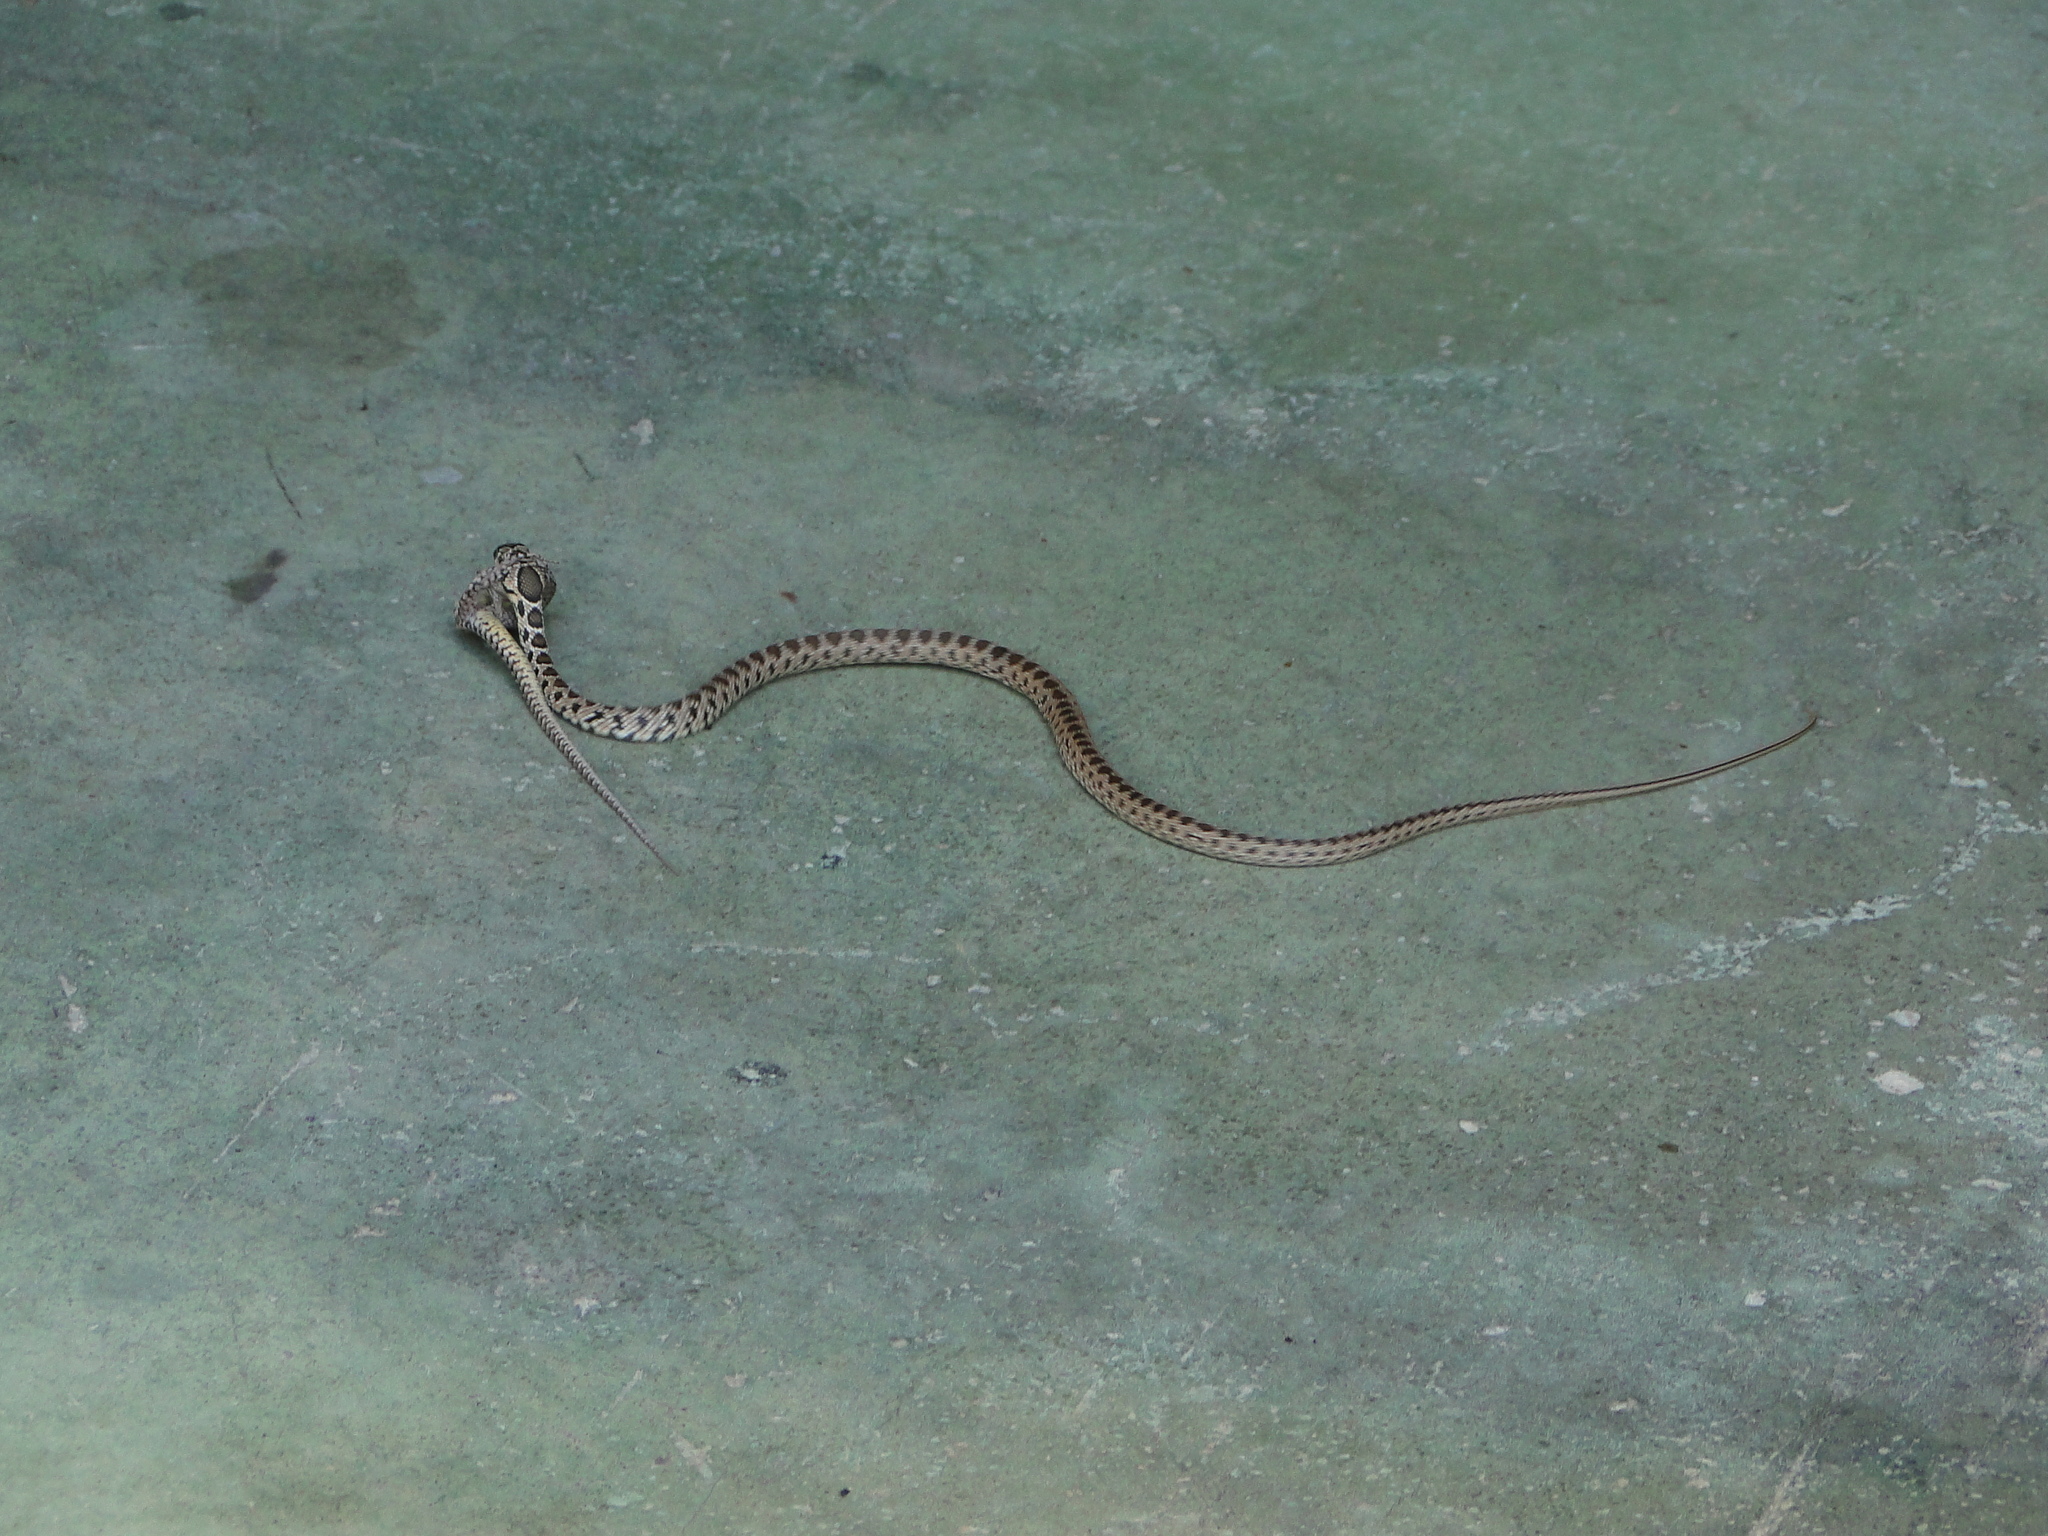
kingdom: Animalia
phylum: Chordata
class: Squamata
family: Colubridae
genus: Hemorrhois
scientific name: Hemorrhois hippocrepis
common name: Horseshoe whip snake
